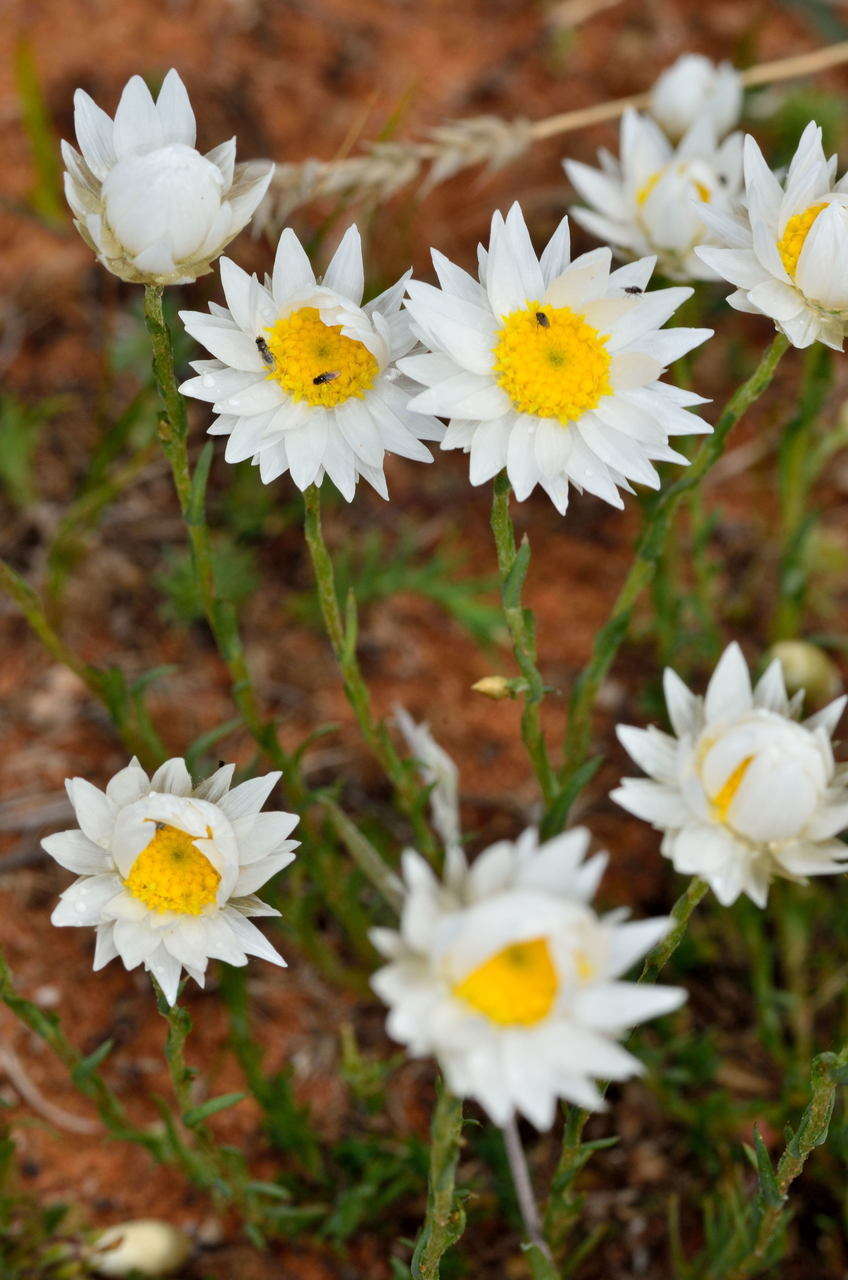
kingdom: Plantae
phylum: Tracheophyta
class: Magnoliopsida
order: Asterales
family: Asteraceae
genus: Rhodanthe
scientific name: Rhodanthe stuartiana
